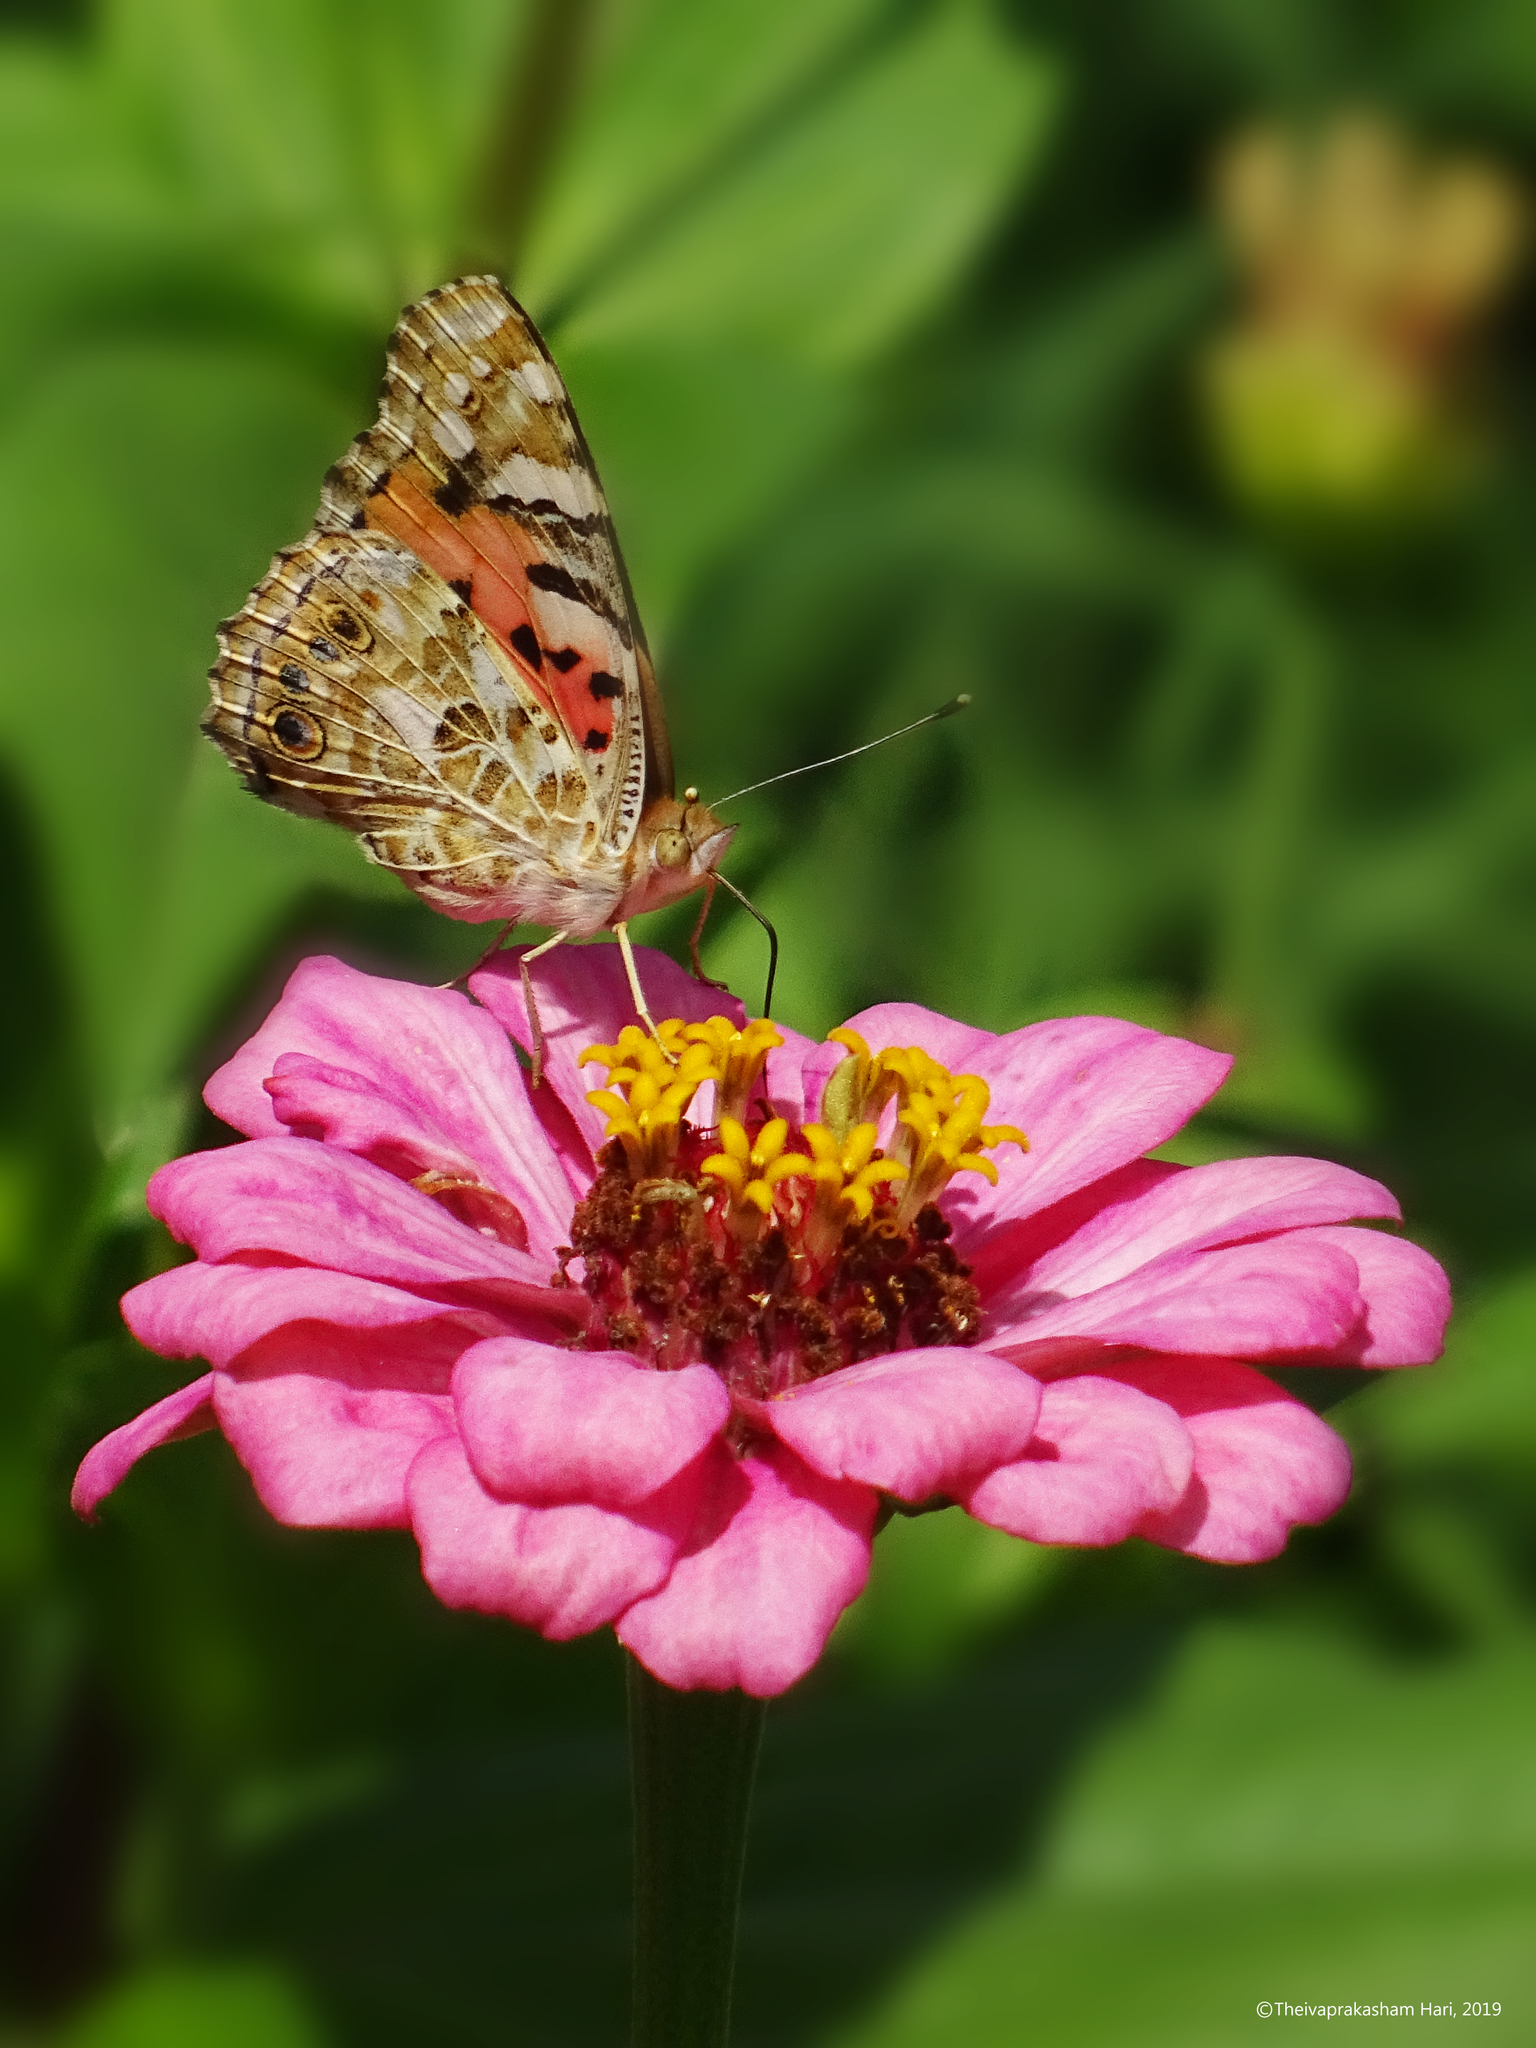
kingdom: Animalia
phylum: Arthropoda
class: Insecta
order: Lepidoptera
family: Nymphalidae
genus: Vanessa
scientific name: Vanessa cardui
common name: Painted lady
